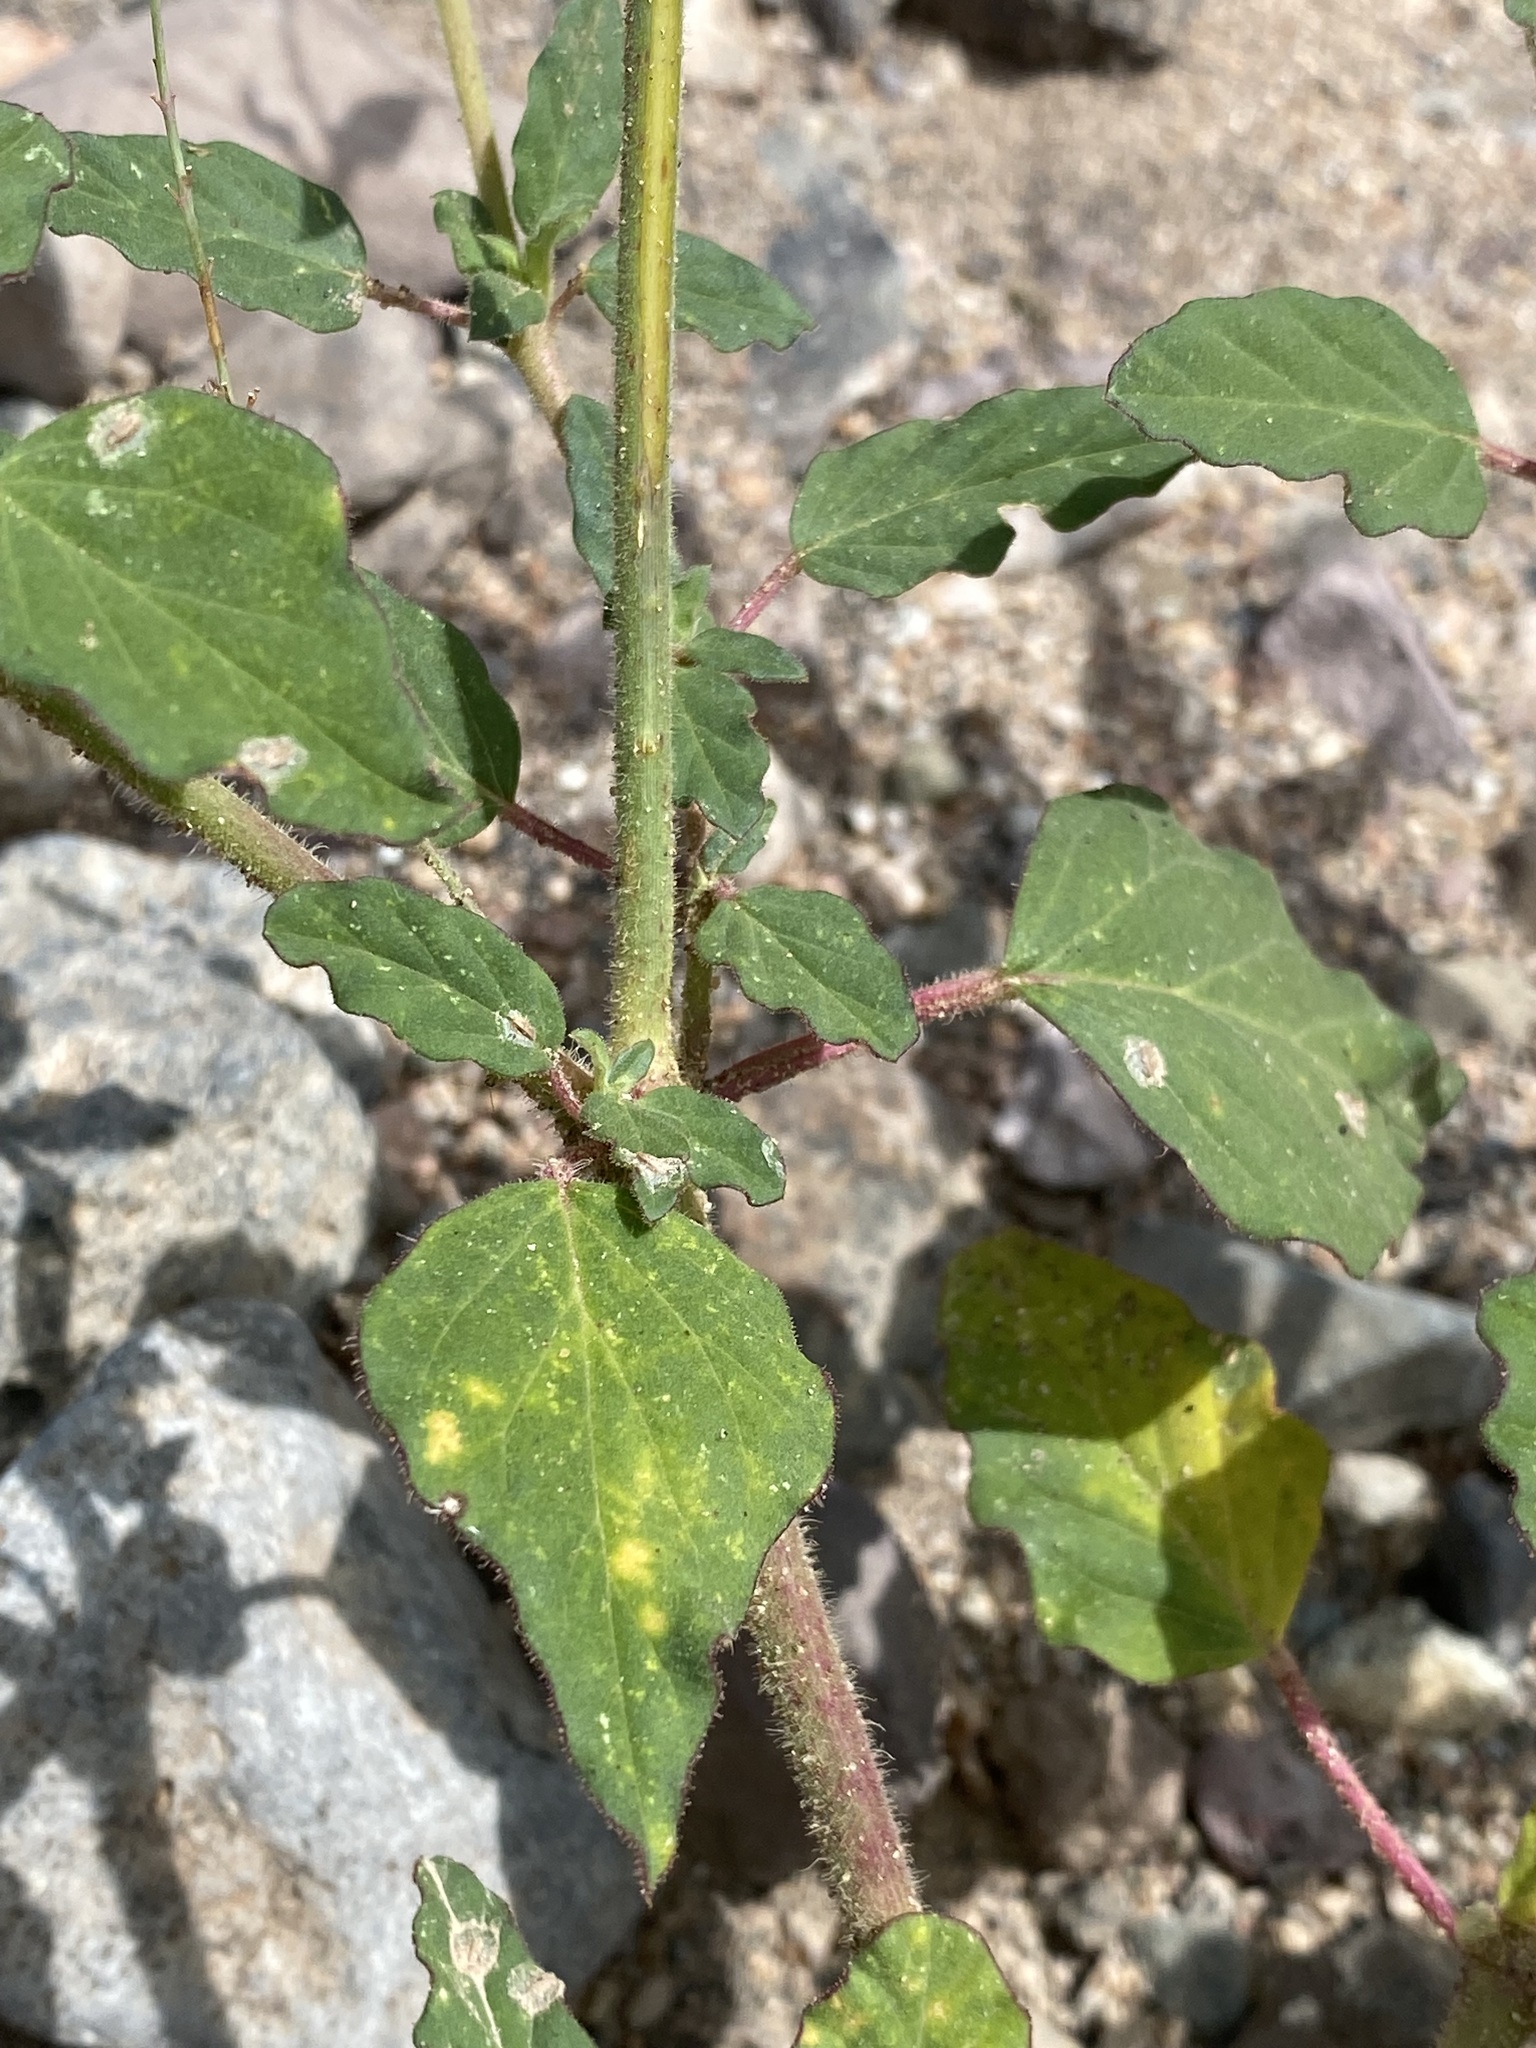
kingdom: Plantae
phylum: Tracheophyta
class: Magnoliopsida
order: Caryophyllales
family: Nyctaginaceae
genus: Boerhavia
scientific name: Boerhavia erecta
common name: Erect spiderling
